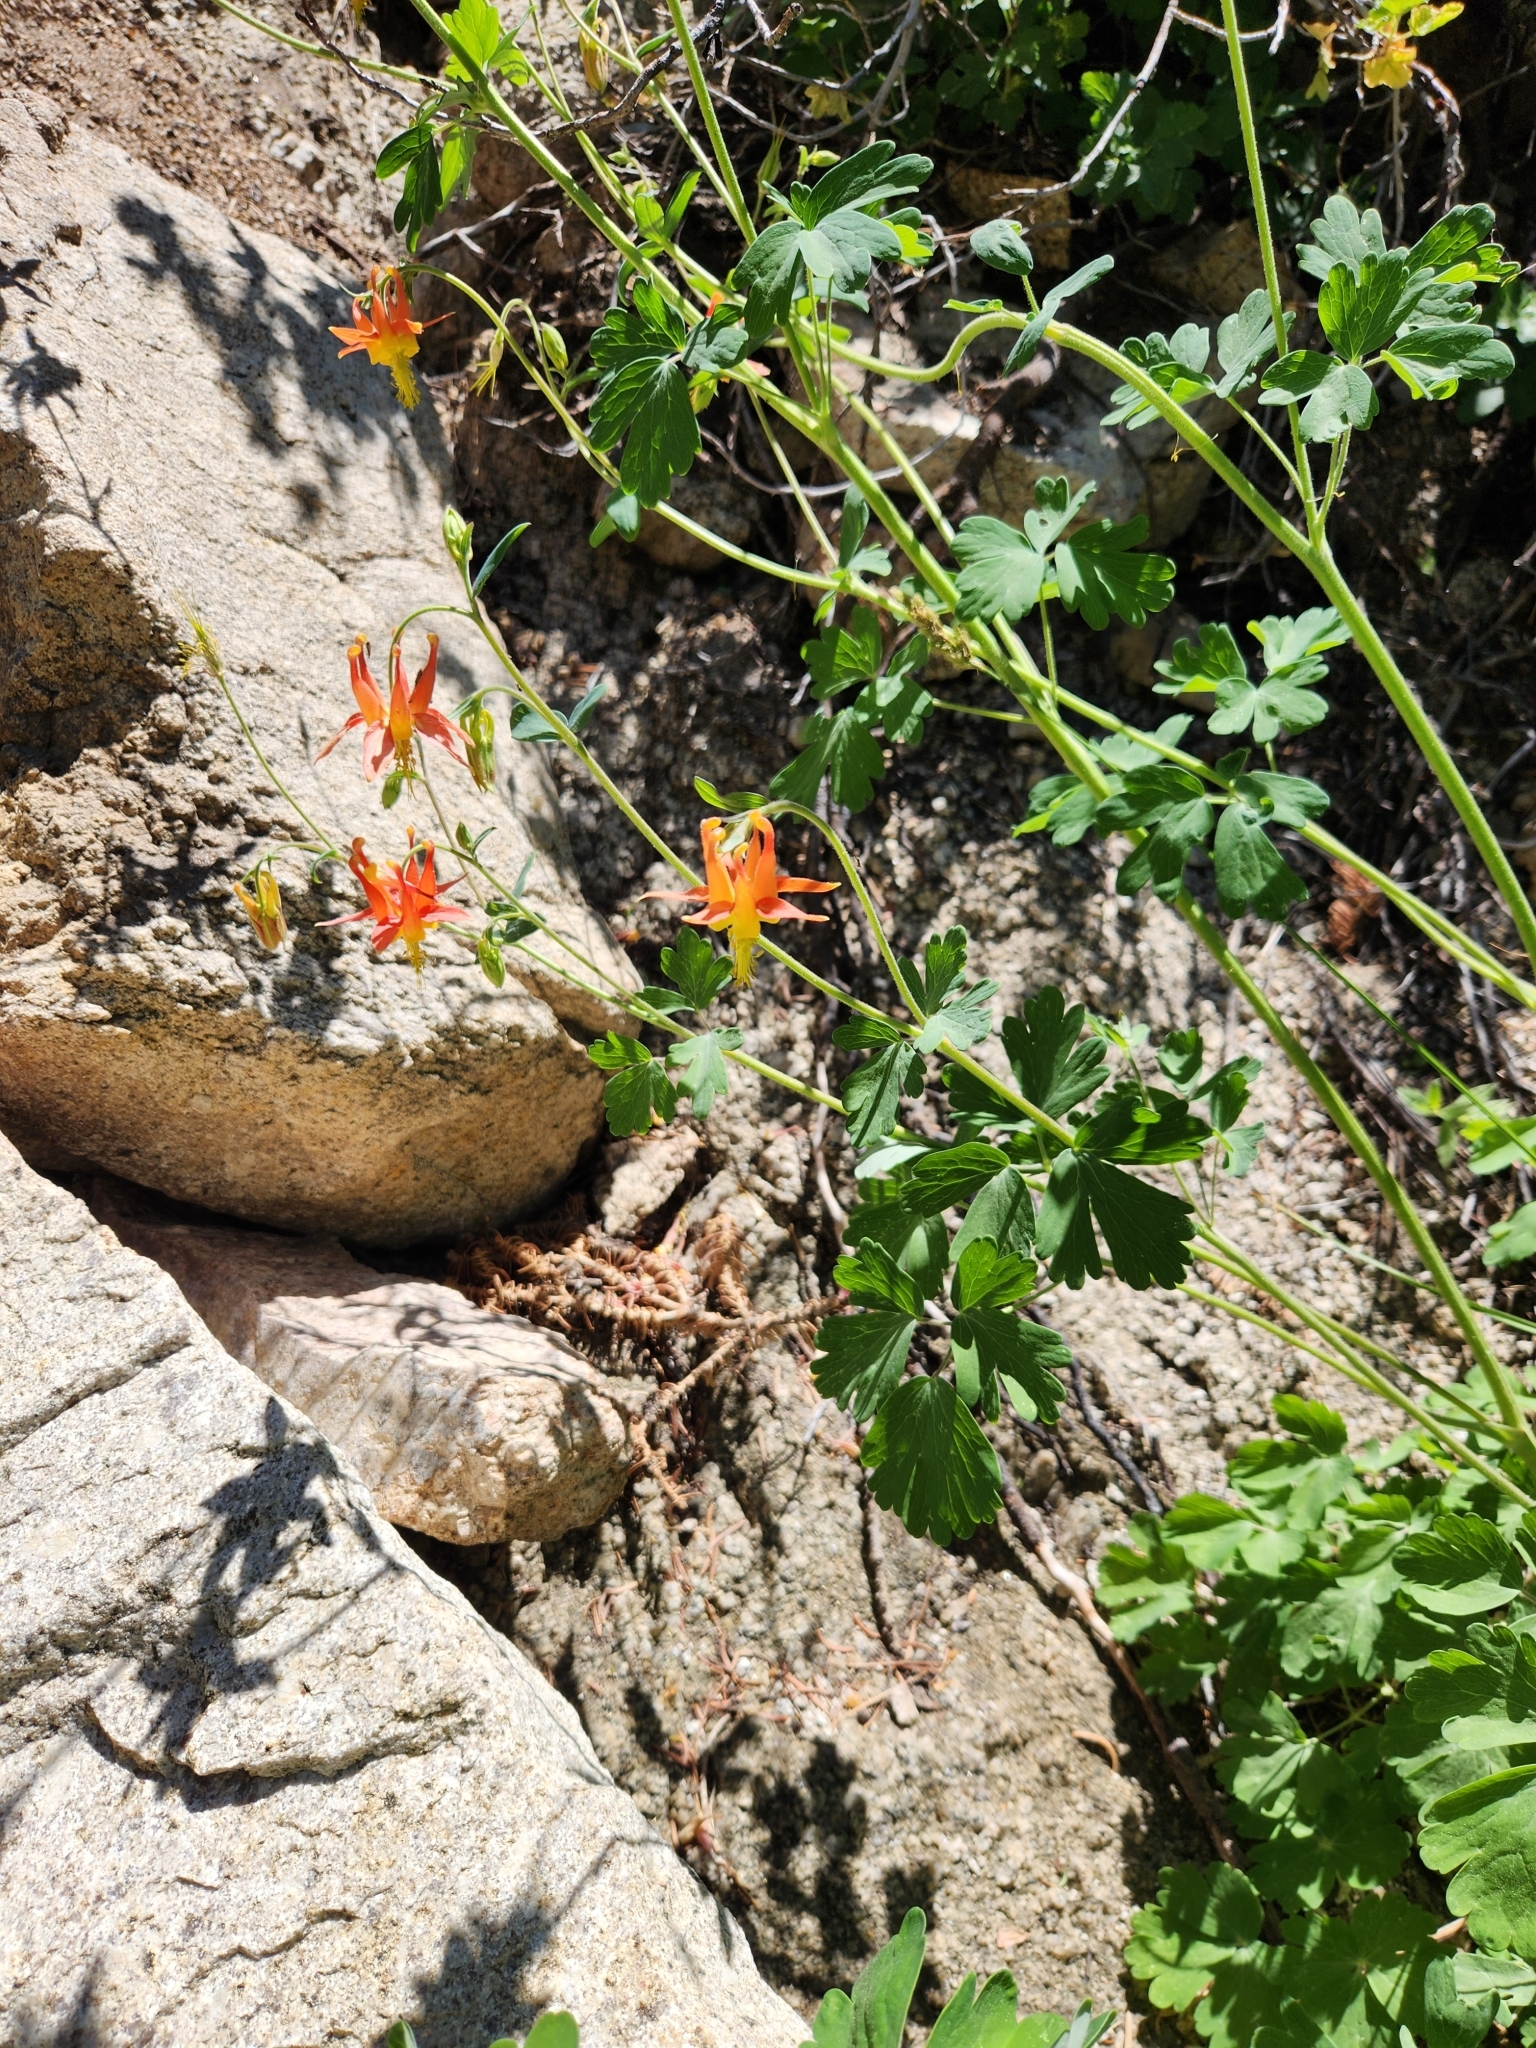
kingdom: Plantae
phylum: Tracheophyta
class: Magnoliopsida
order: Ranunculales
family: Ranunculaceae
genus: Aquilegia
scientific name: Aquilegia formosa
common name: Sitka columbine
